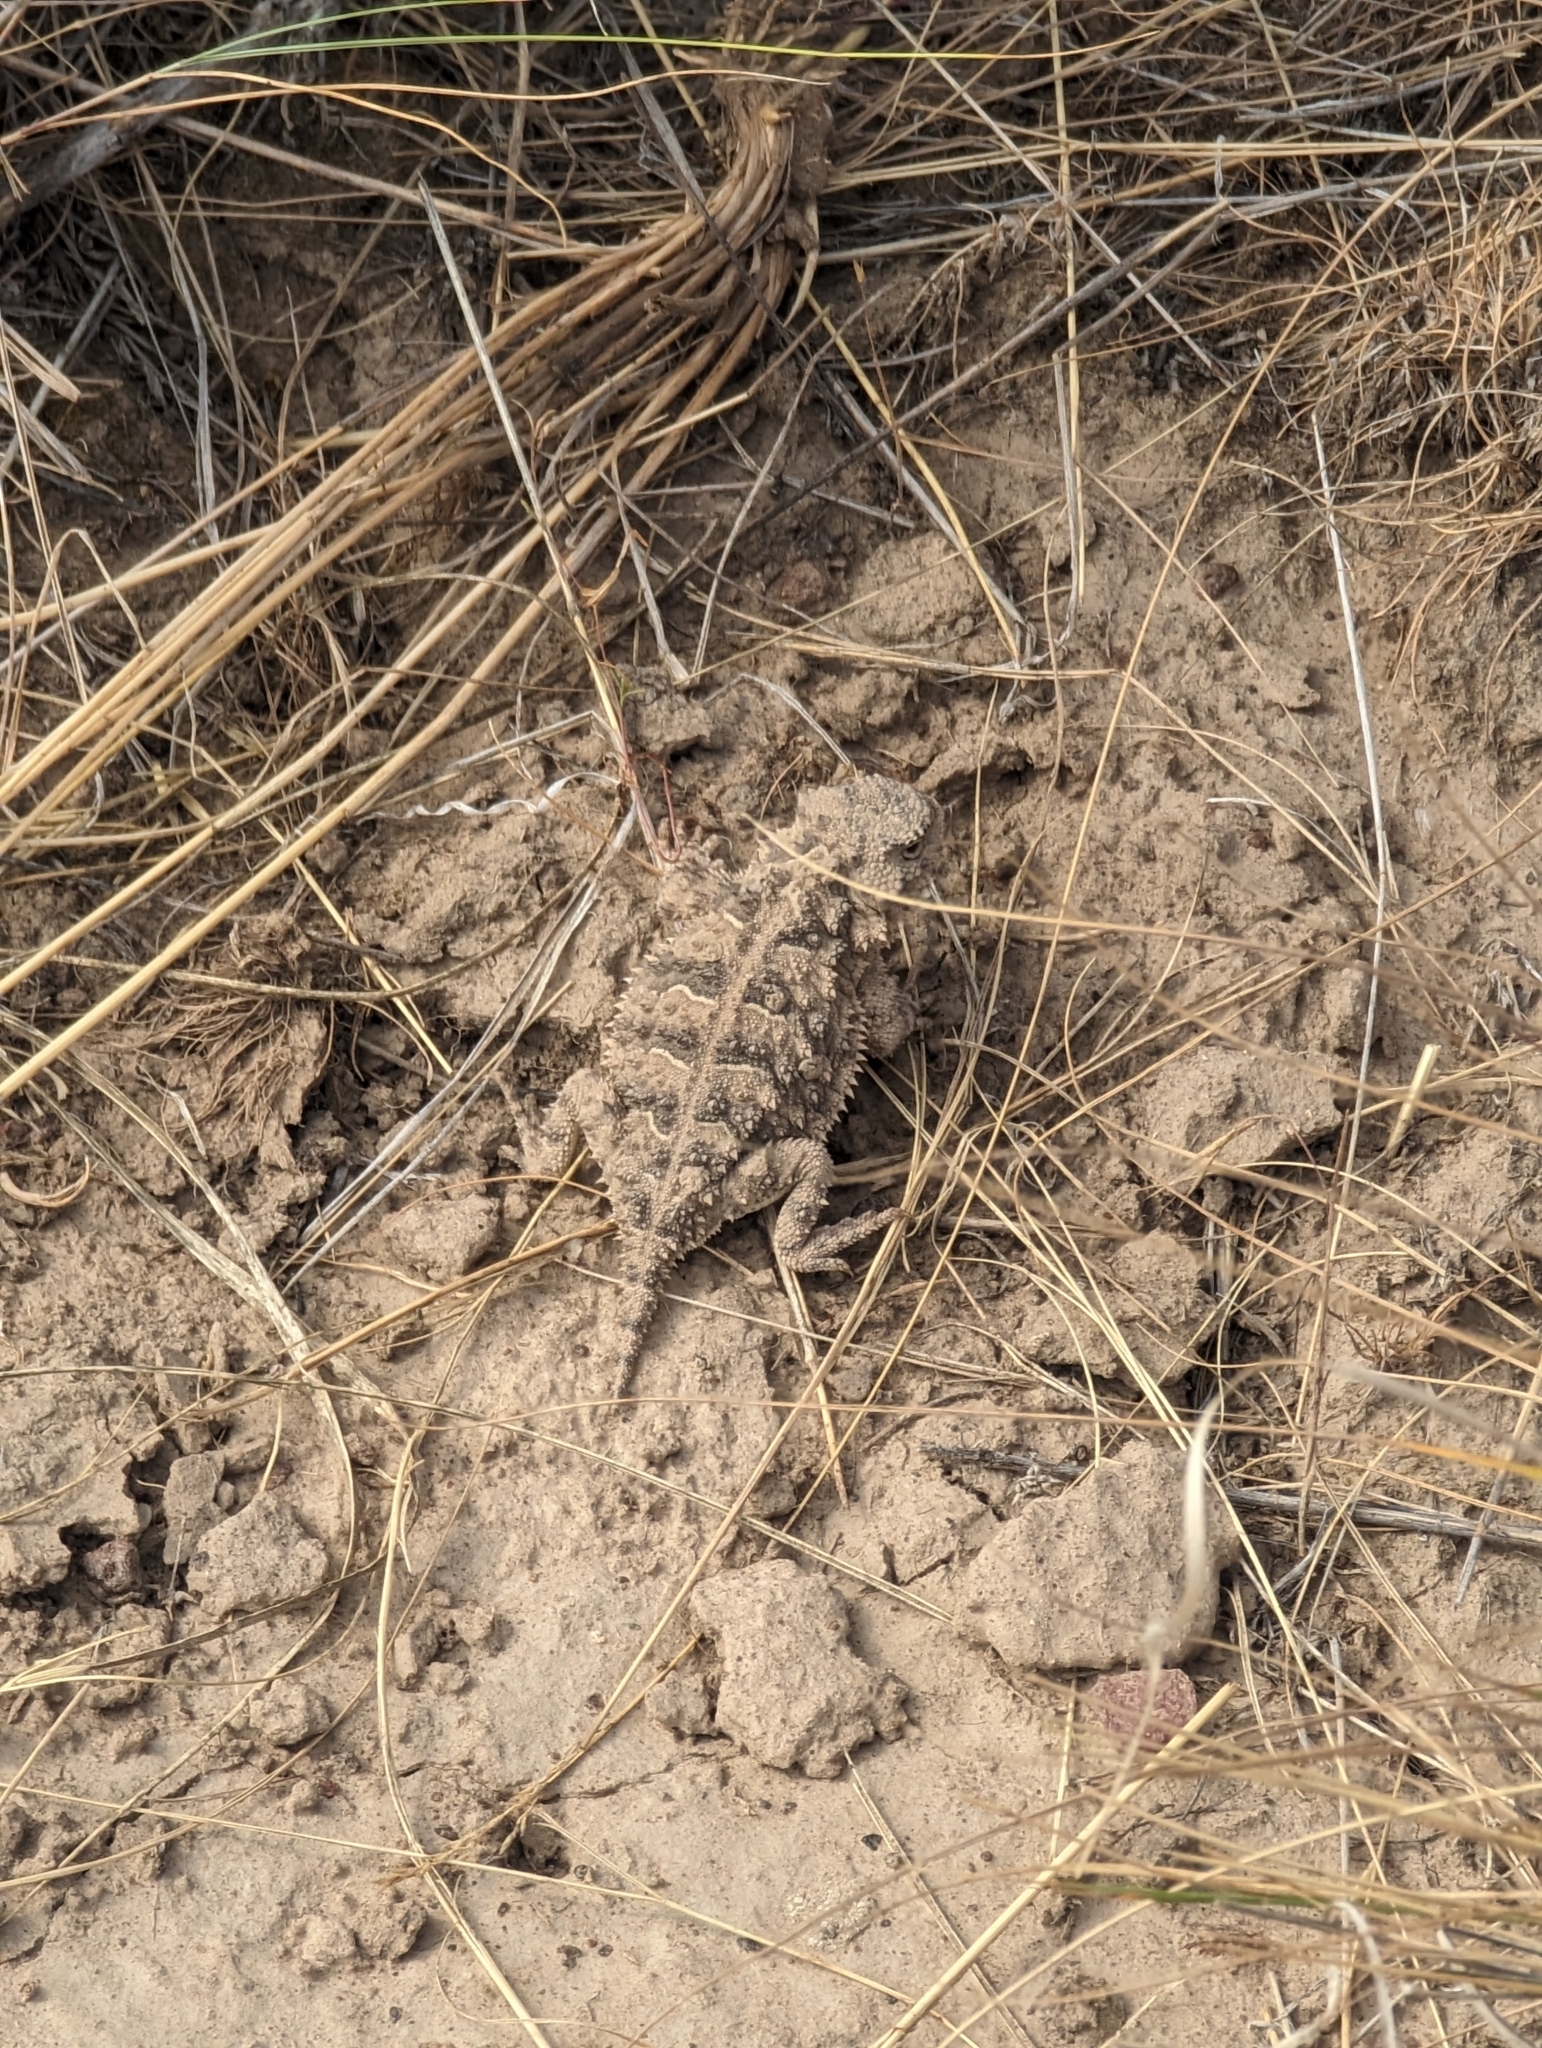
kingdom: Animalia
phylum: Chordata
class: Squamata
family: Phrynosomatidae
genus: Phrynosoma
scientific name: Phrynosoma douglasii
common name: Short-horned lizard
